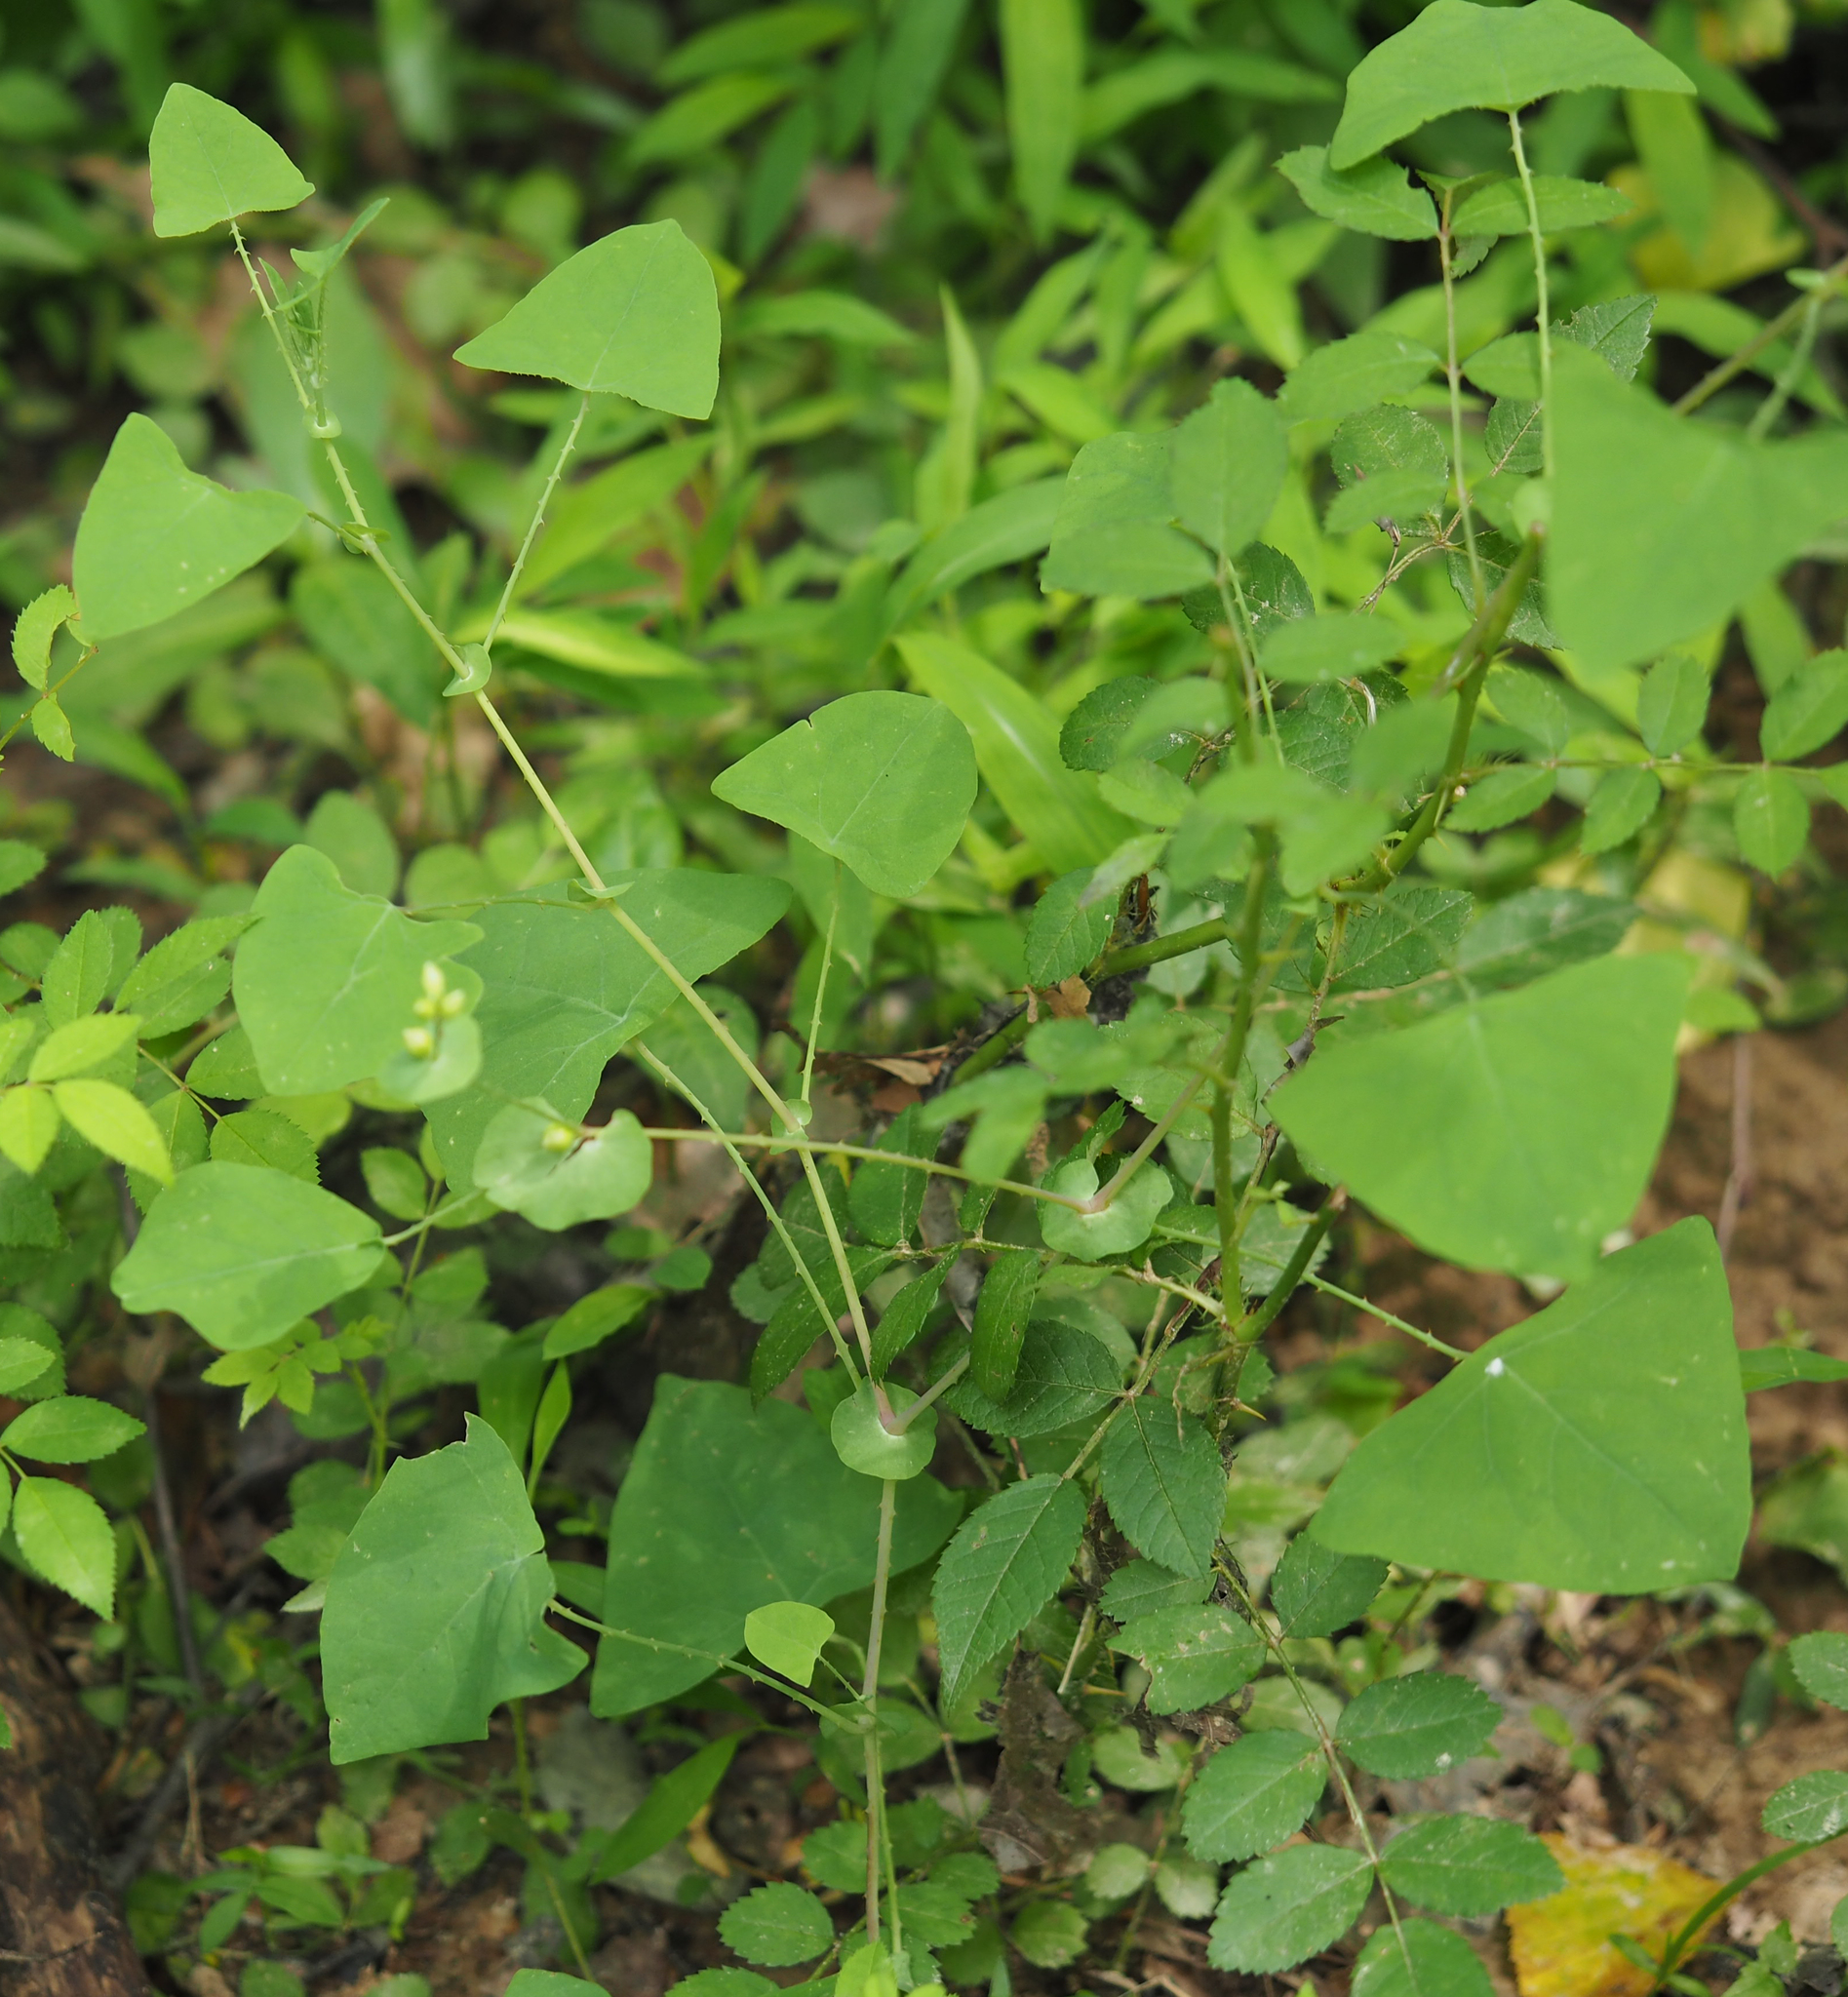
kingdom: Plantae
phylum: Tracheophyta
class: Magnoliopsida
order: Caryophyllales
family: Polygonaceae
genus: Persicaria
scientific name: Persicaria perfoliata
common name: Asiatic tearthumb
